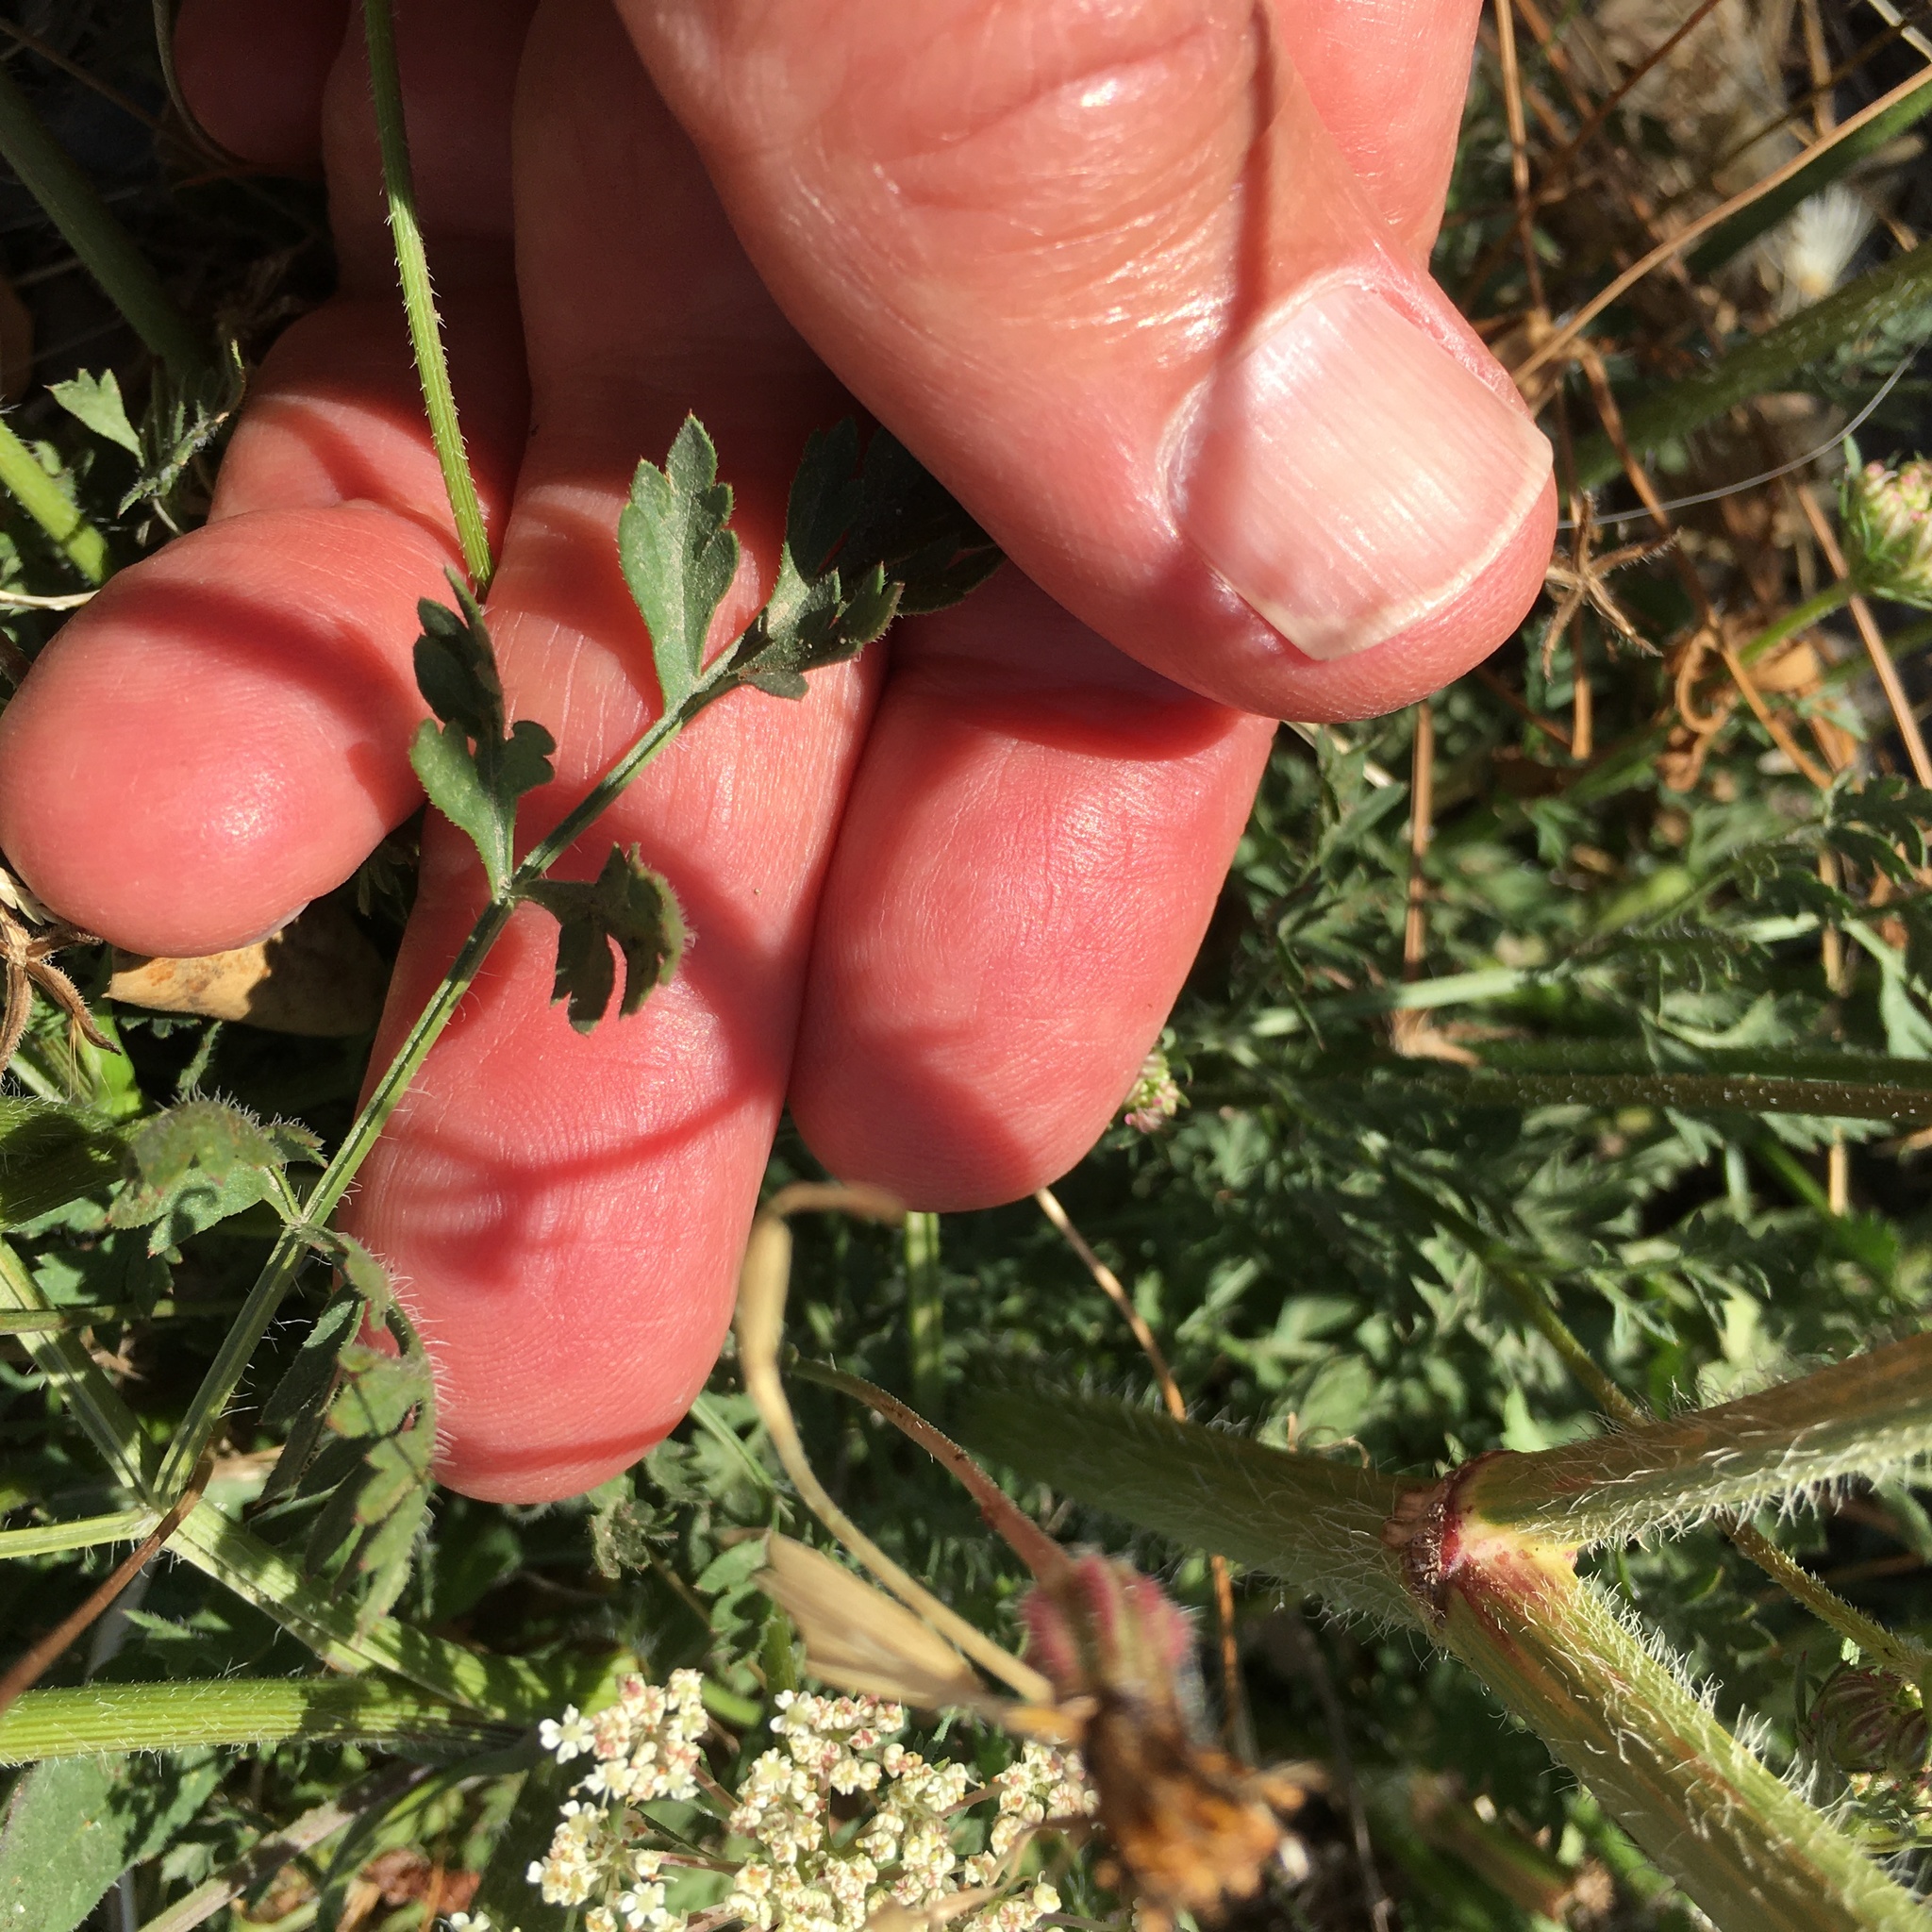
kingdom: Plantae
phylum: Tracheophyta
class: Magnoliopsida
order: Apiales
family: Apiaceae
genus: Daucus
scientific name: Daucus carota
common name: Wild carrot
